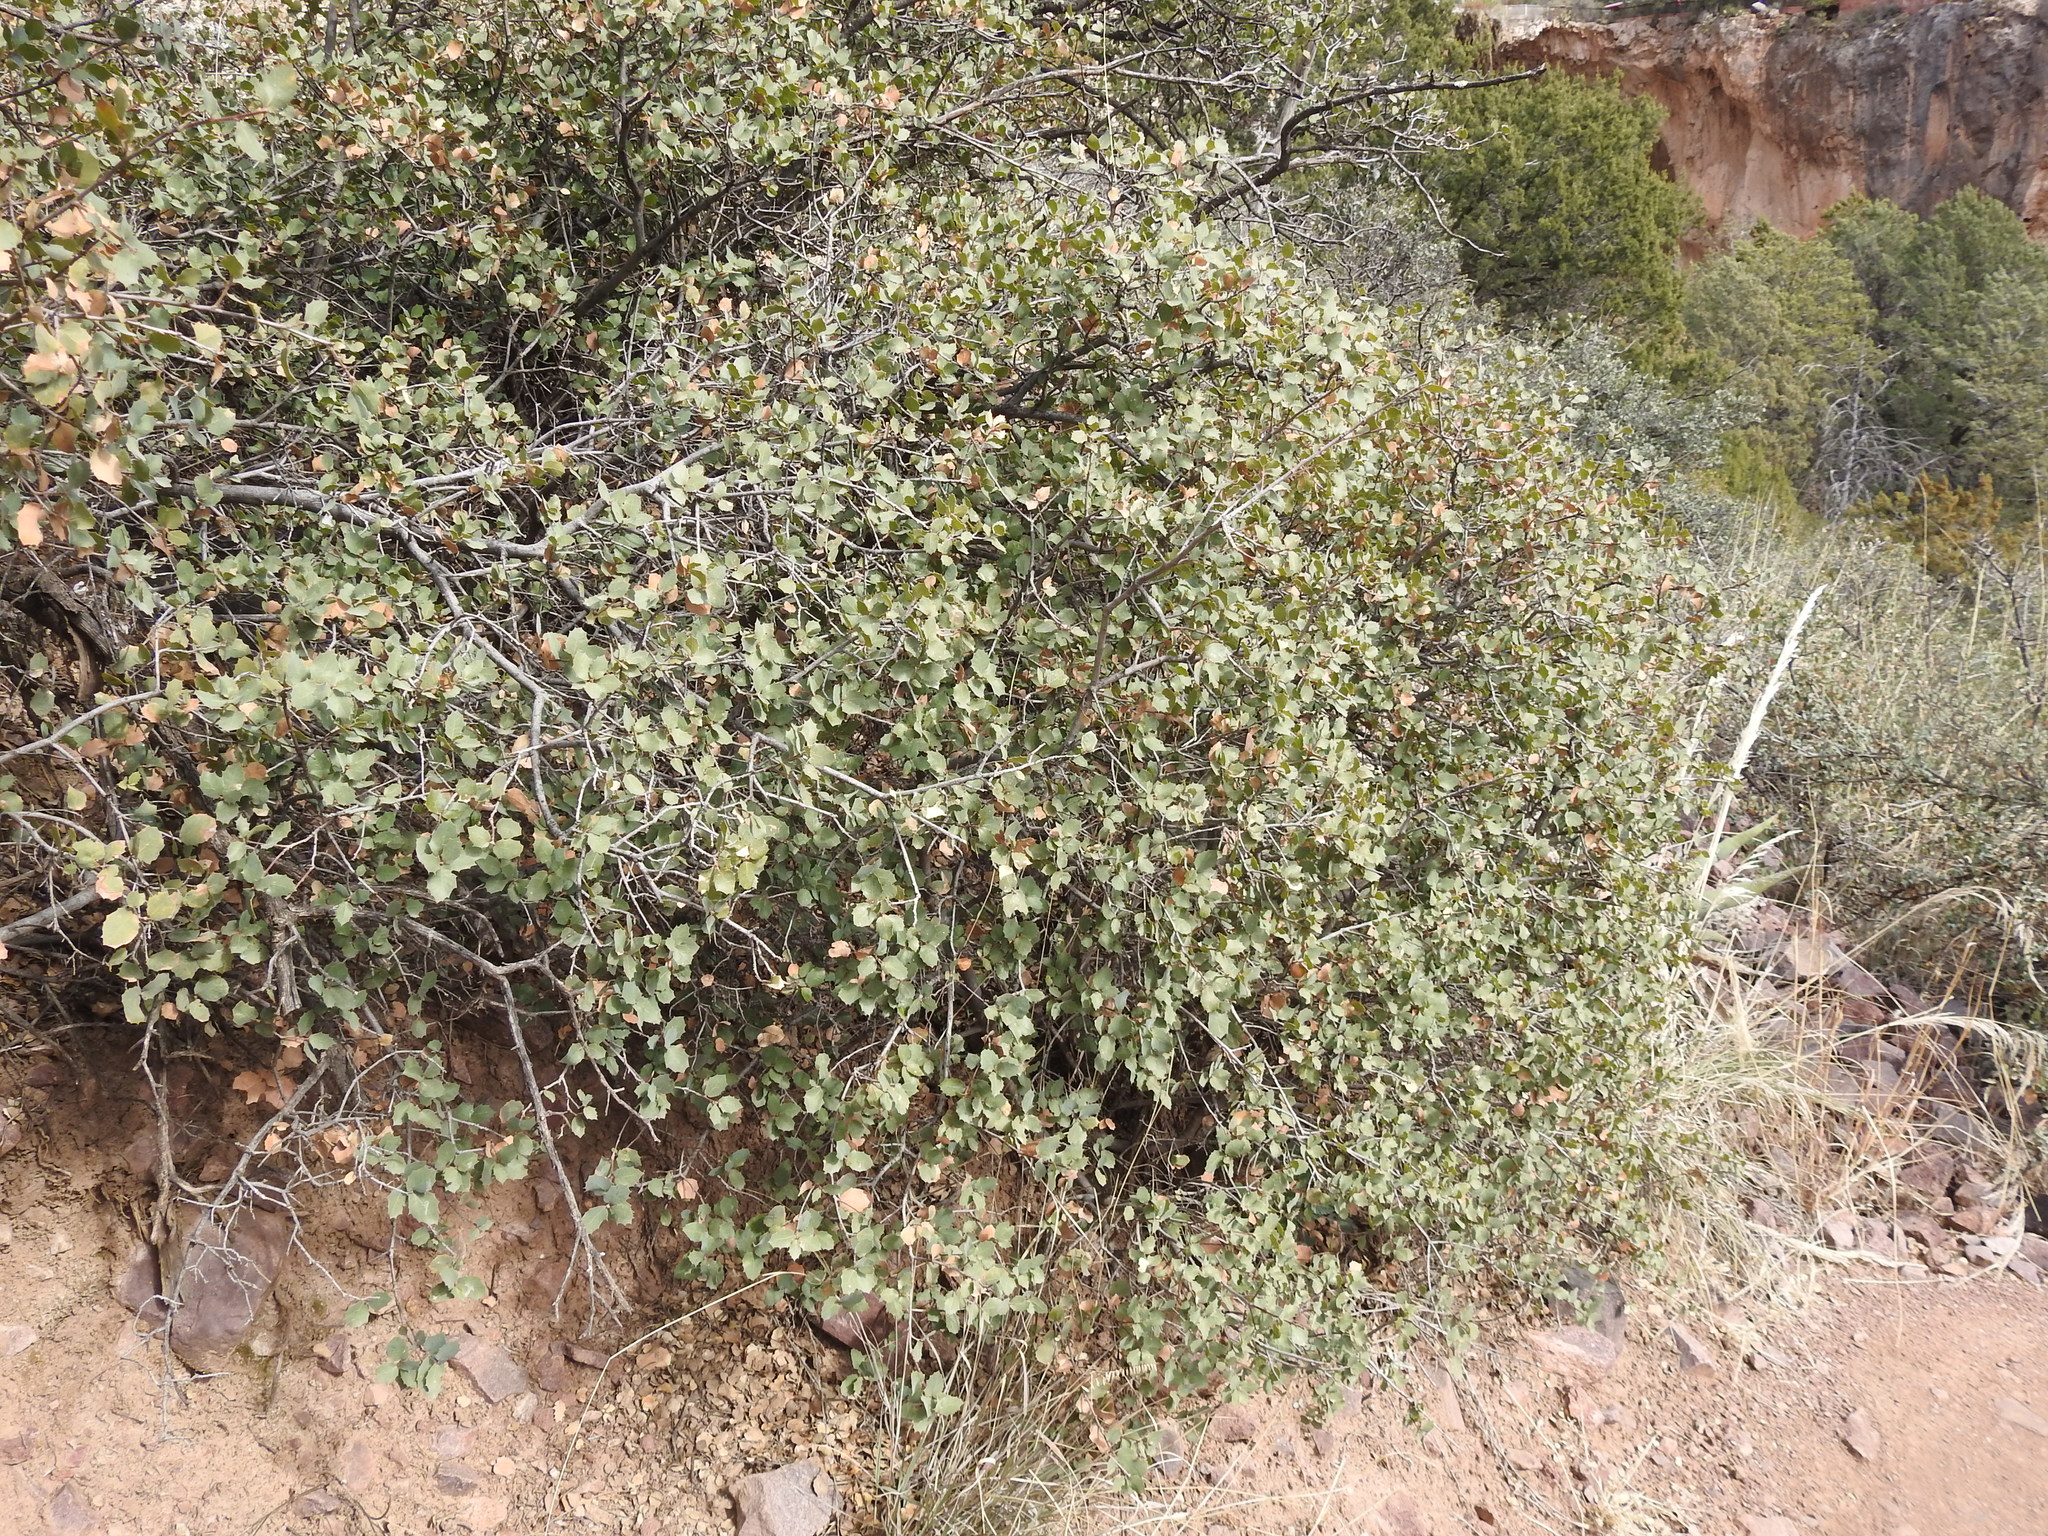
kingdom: Plantae
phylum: Tracheophyta
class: Magnoliopsida
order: Fagales
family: Fagaceae
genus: Quercus
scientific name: Quercus turbinella
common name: Sonoran scrub oak
